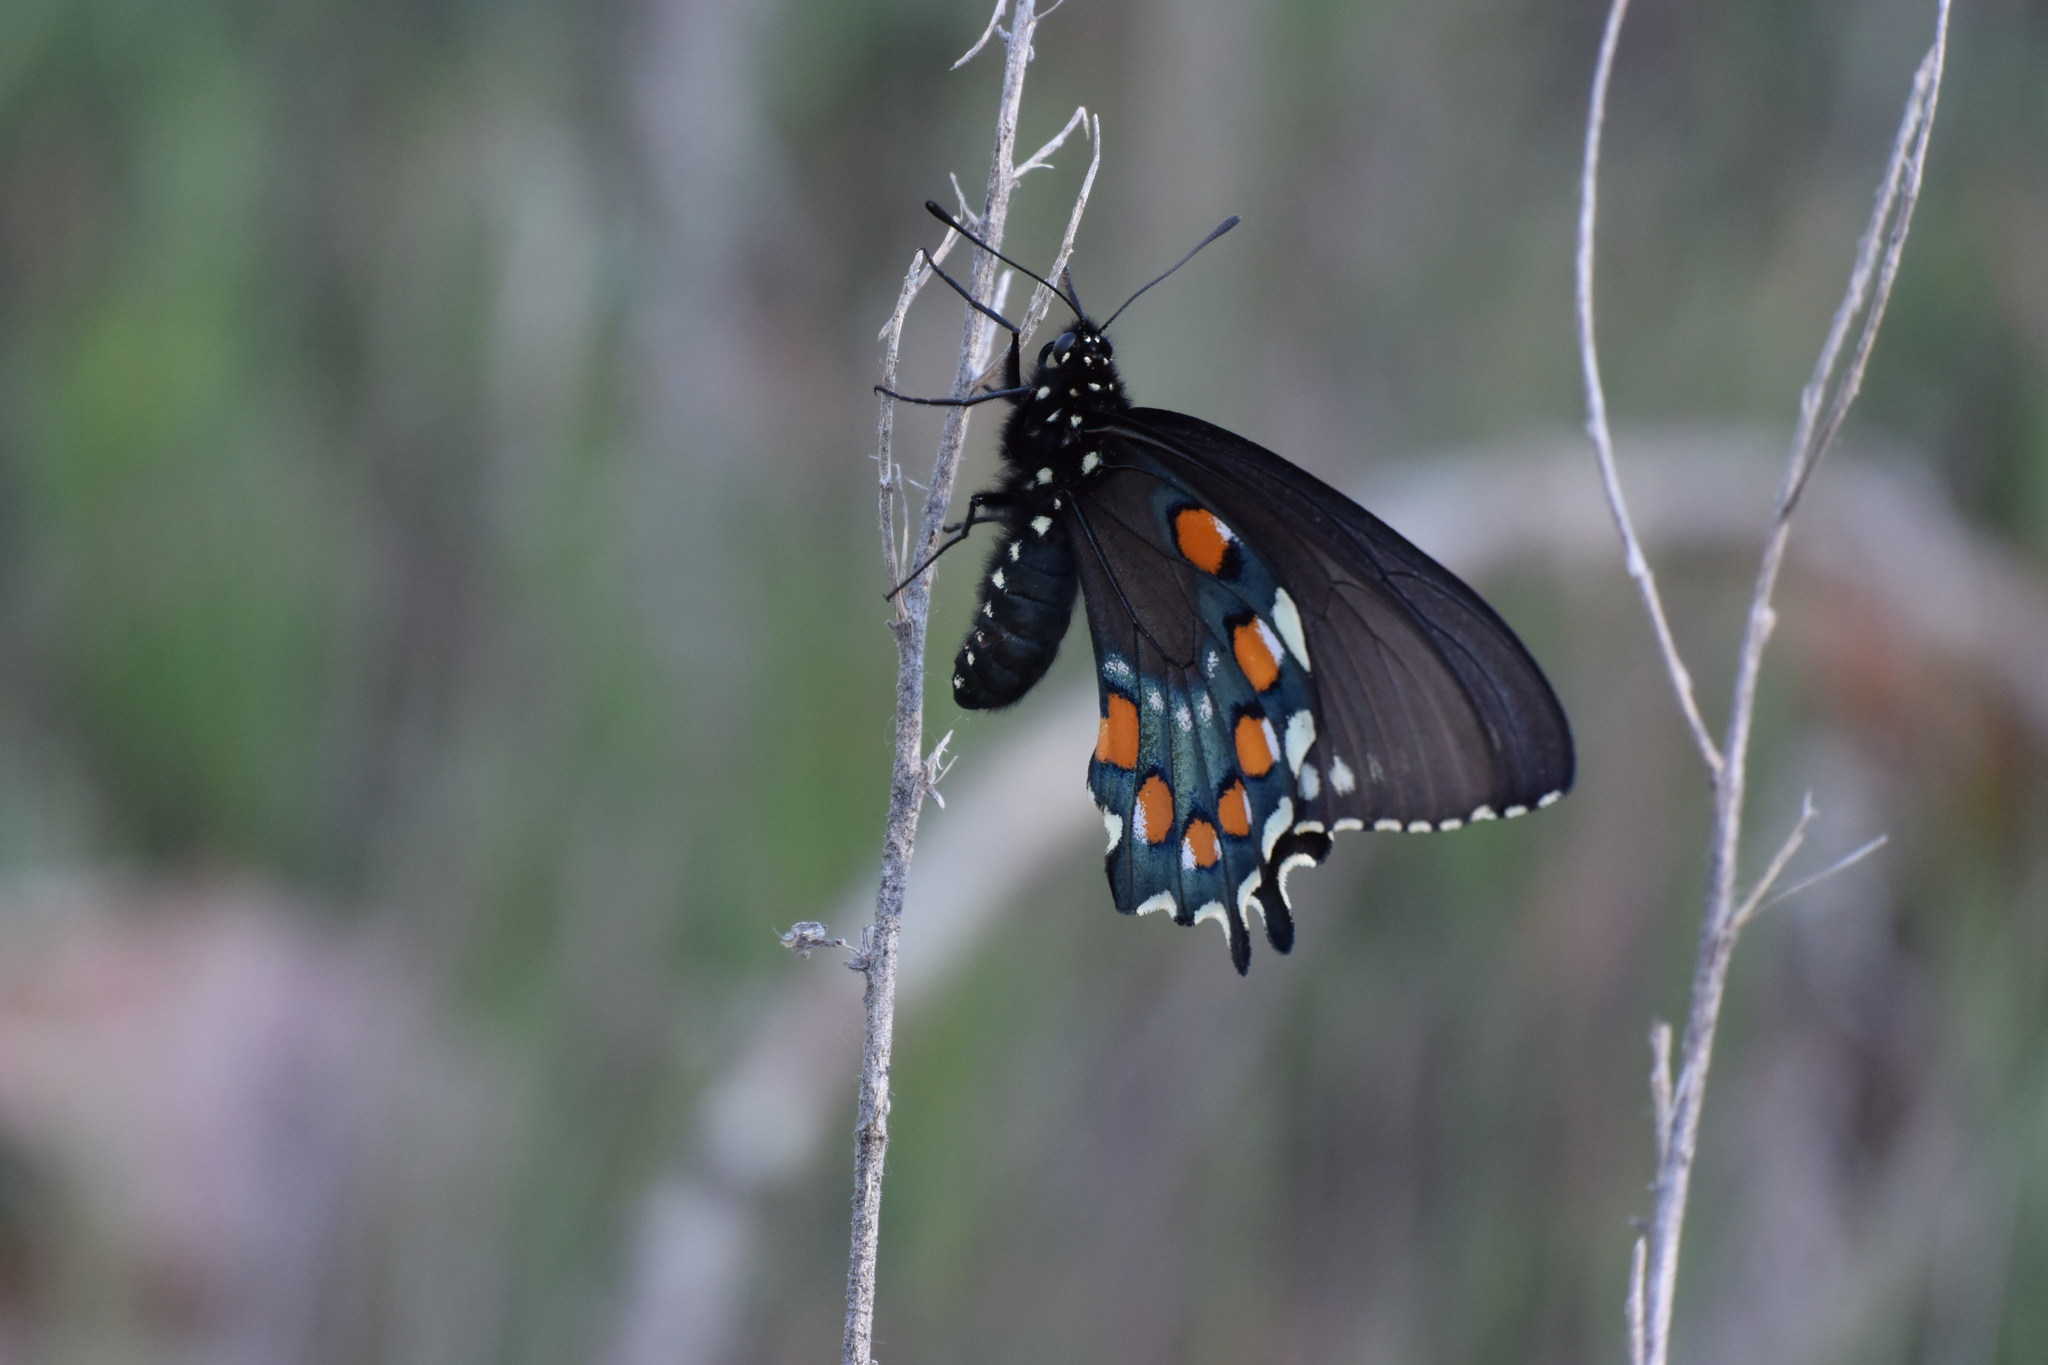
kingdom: Animalia
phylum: Arthropoda
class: Insecta
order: Lepidoptera
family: Papilionidae
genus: Battus
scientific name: Battus philenor
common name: Pipevine swallowtail
